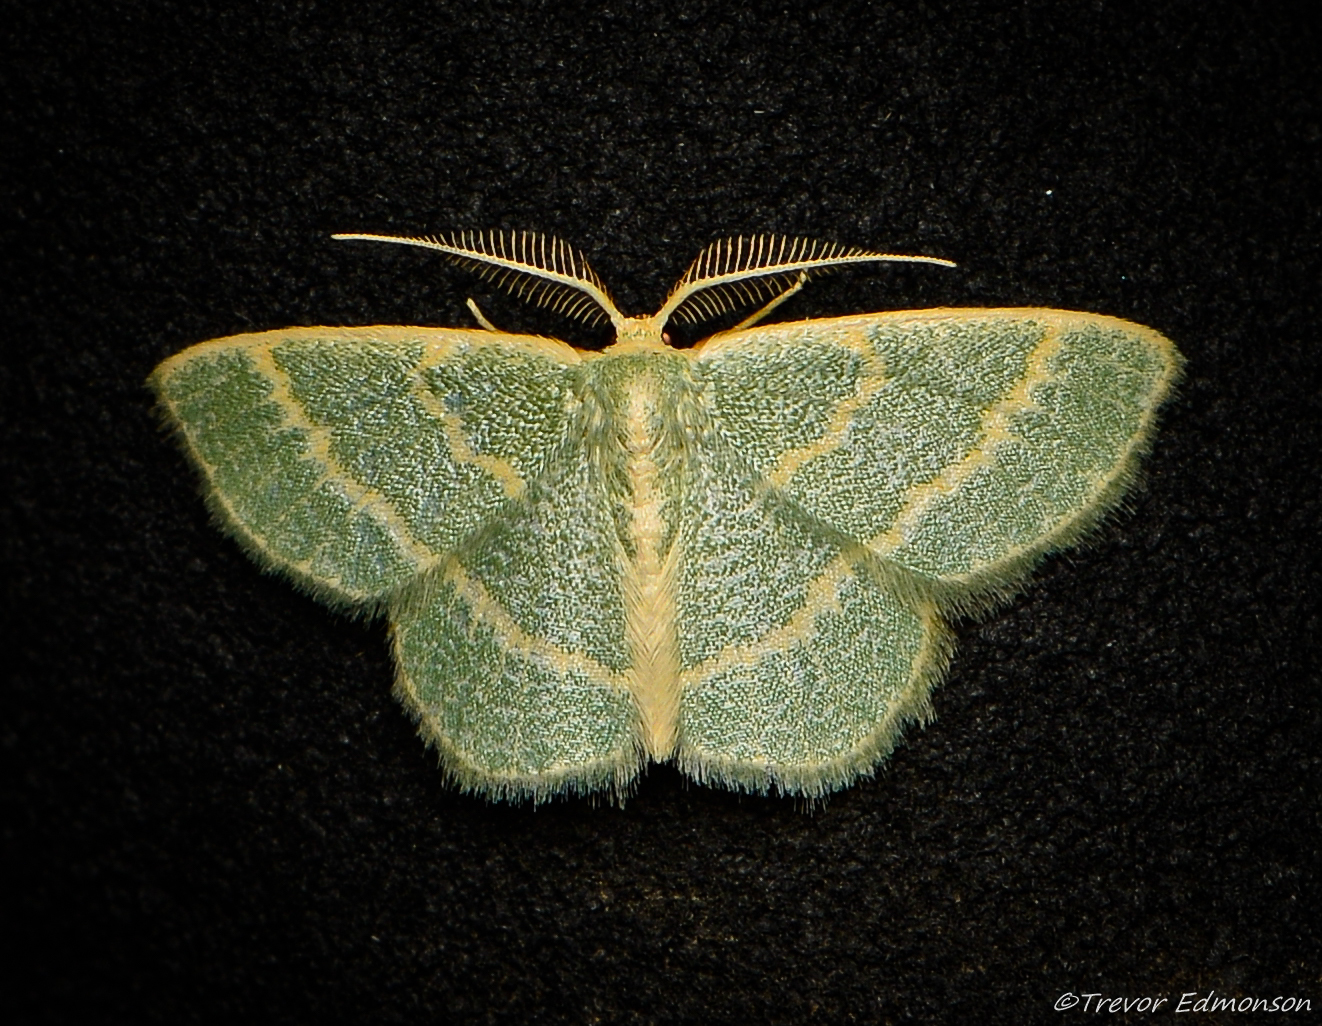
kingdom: Animalia
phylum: Arthropoda
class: Insecta
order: Lepidoptera
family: Geometridae
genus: Chlorochlamys
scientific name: Chlorochlamys chloroleucaria
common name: Blackberry looper
